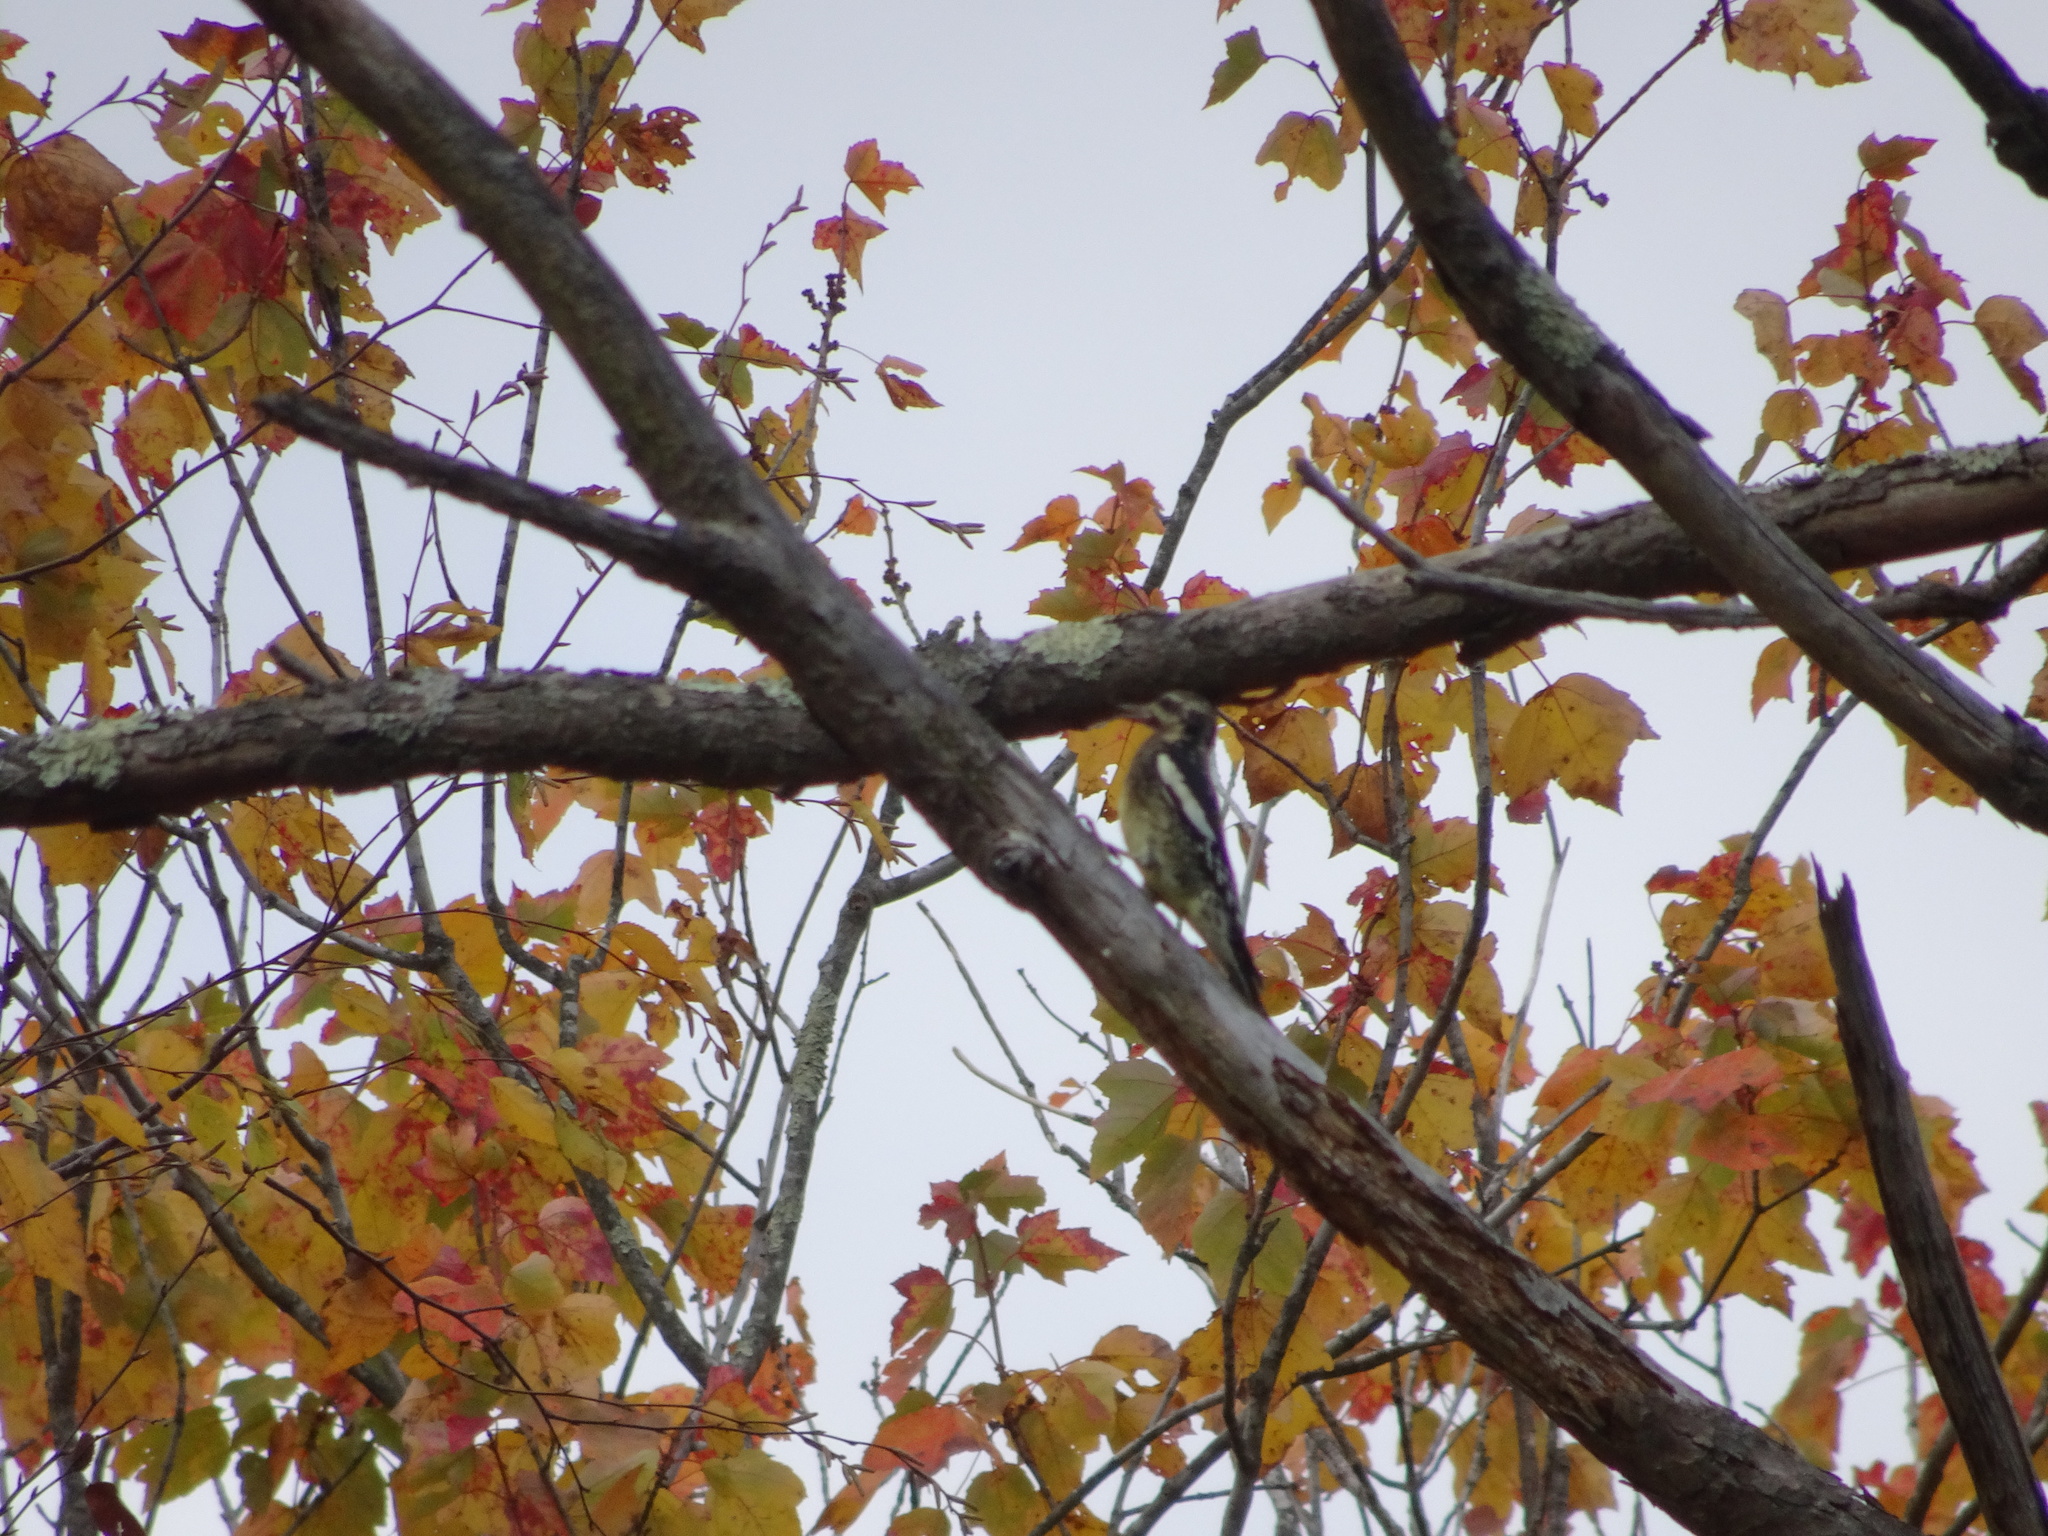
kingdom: Animalia
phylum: Chordata
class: Aves
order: Piciformes
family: Picidae
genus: Sphyrapicus
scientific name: Sphyrapicus varius
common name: Yellow-bellied sapsucker
